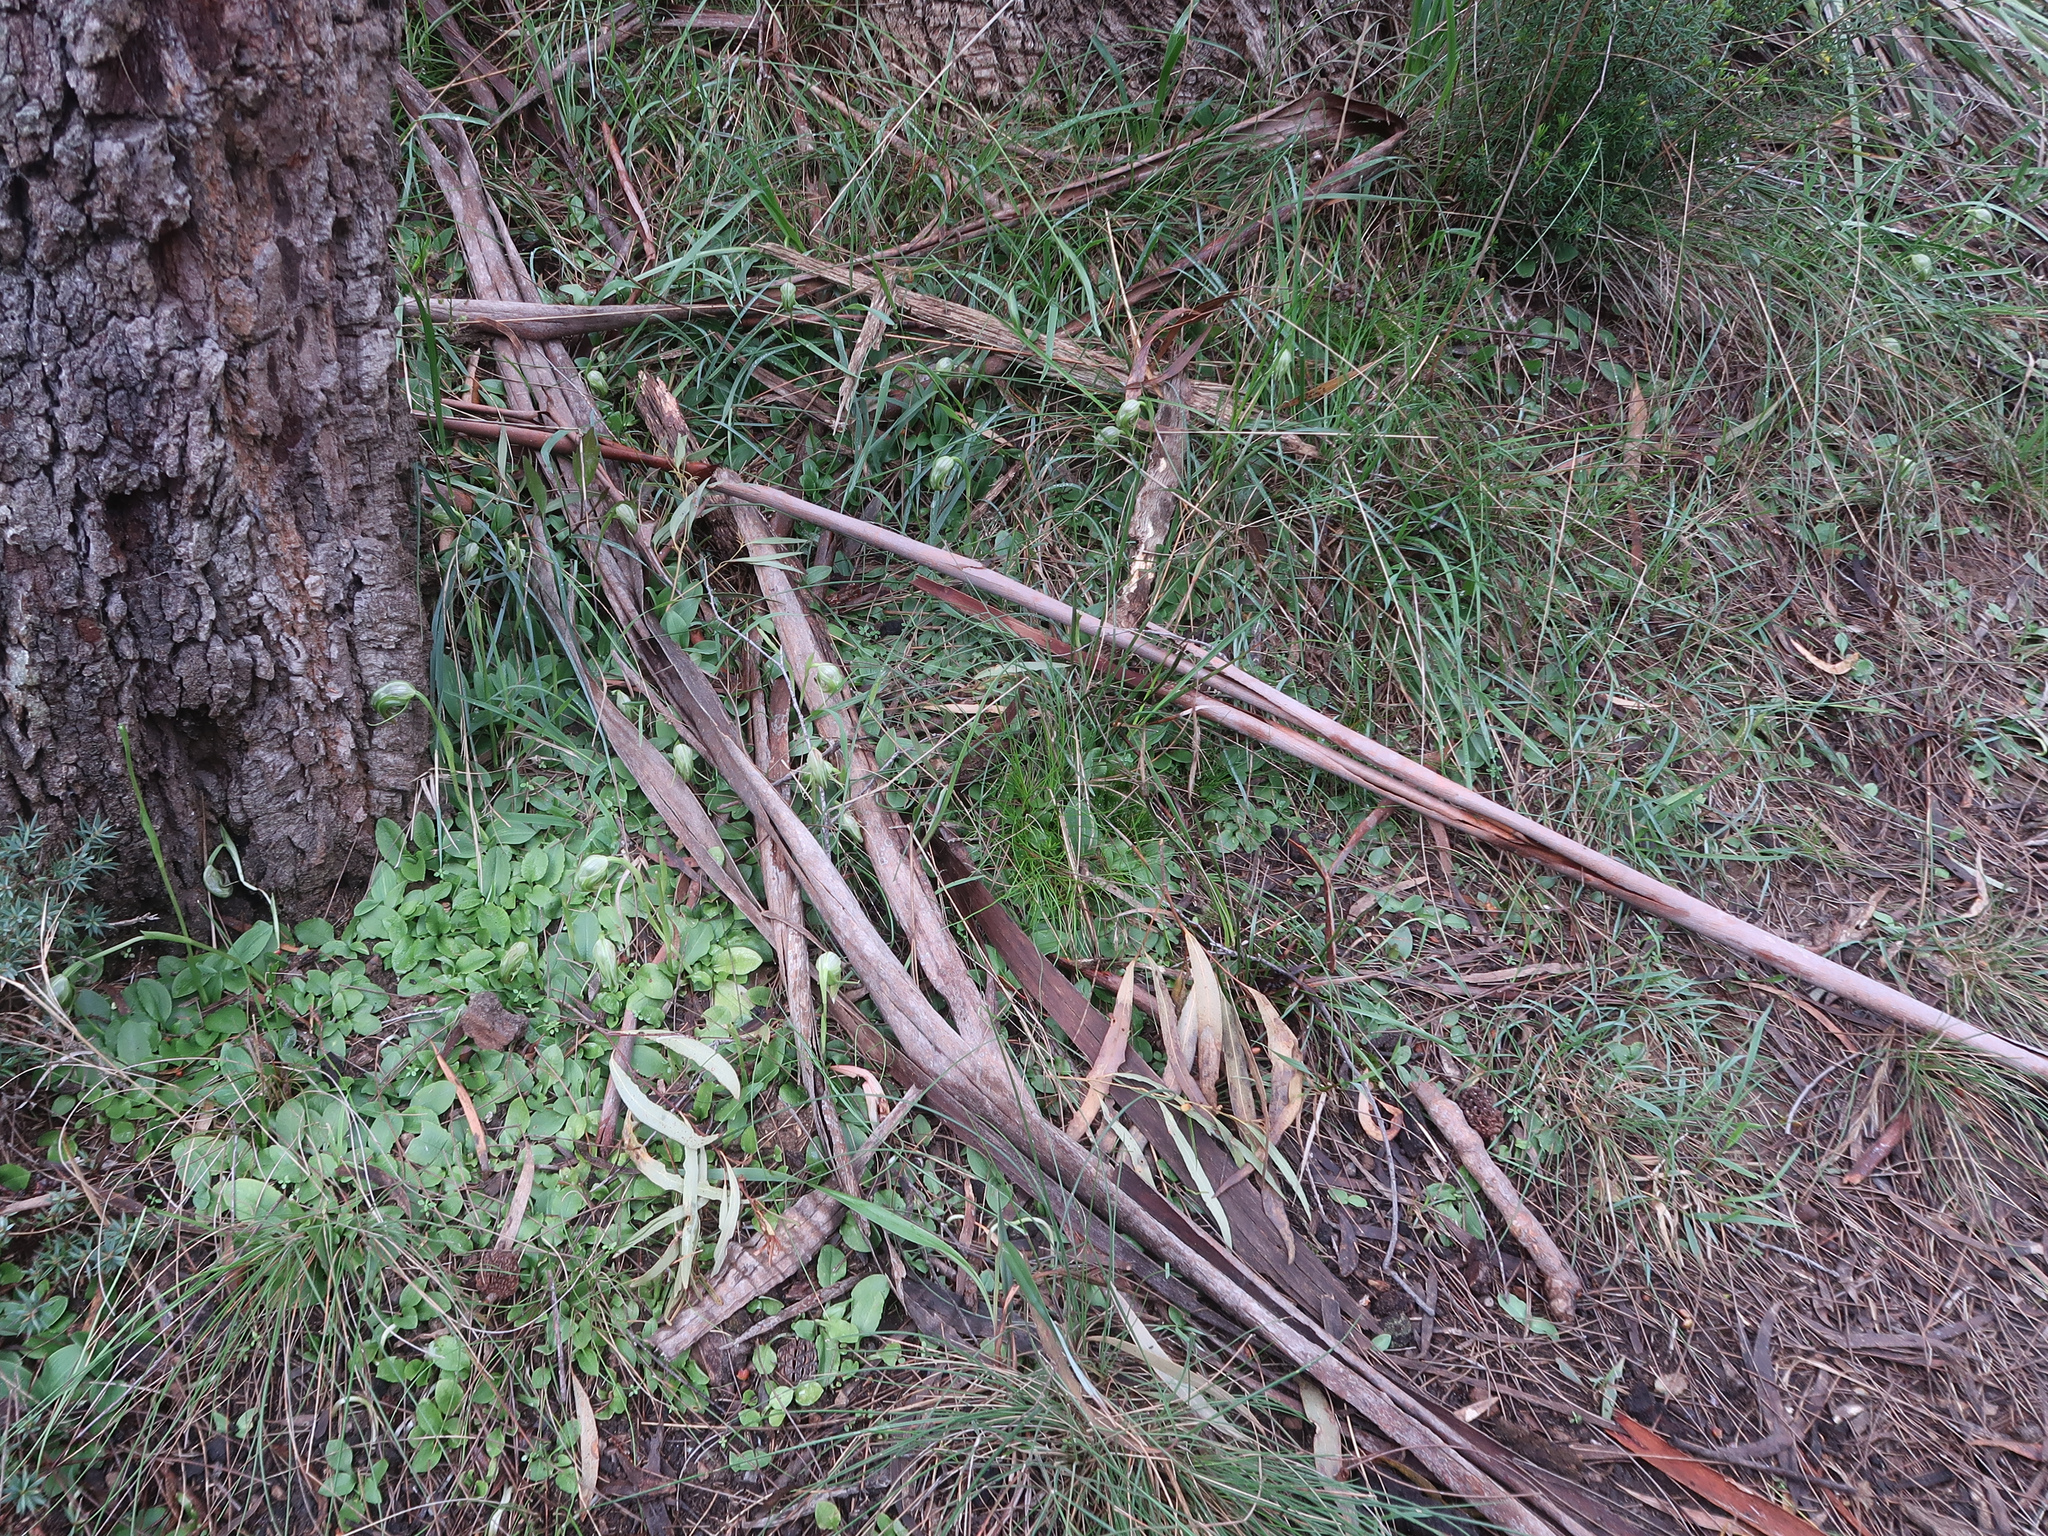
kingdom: Plantae
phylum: Tracheophyta
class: Liliopsida
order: Asparagales
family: Orchidaceae
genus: Pterostylis
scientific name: Pterostylis nutans
